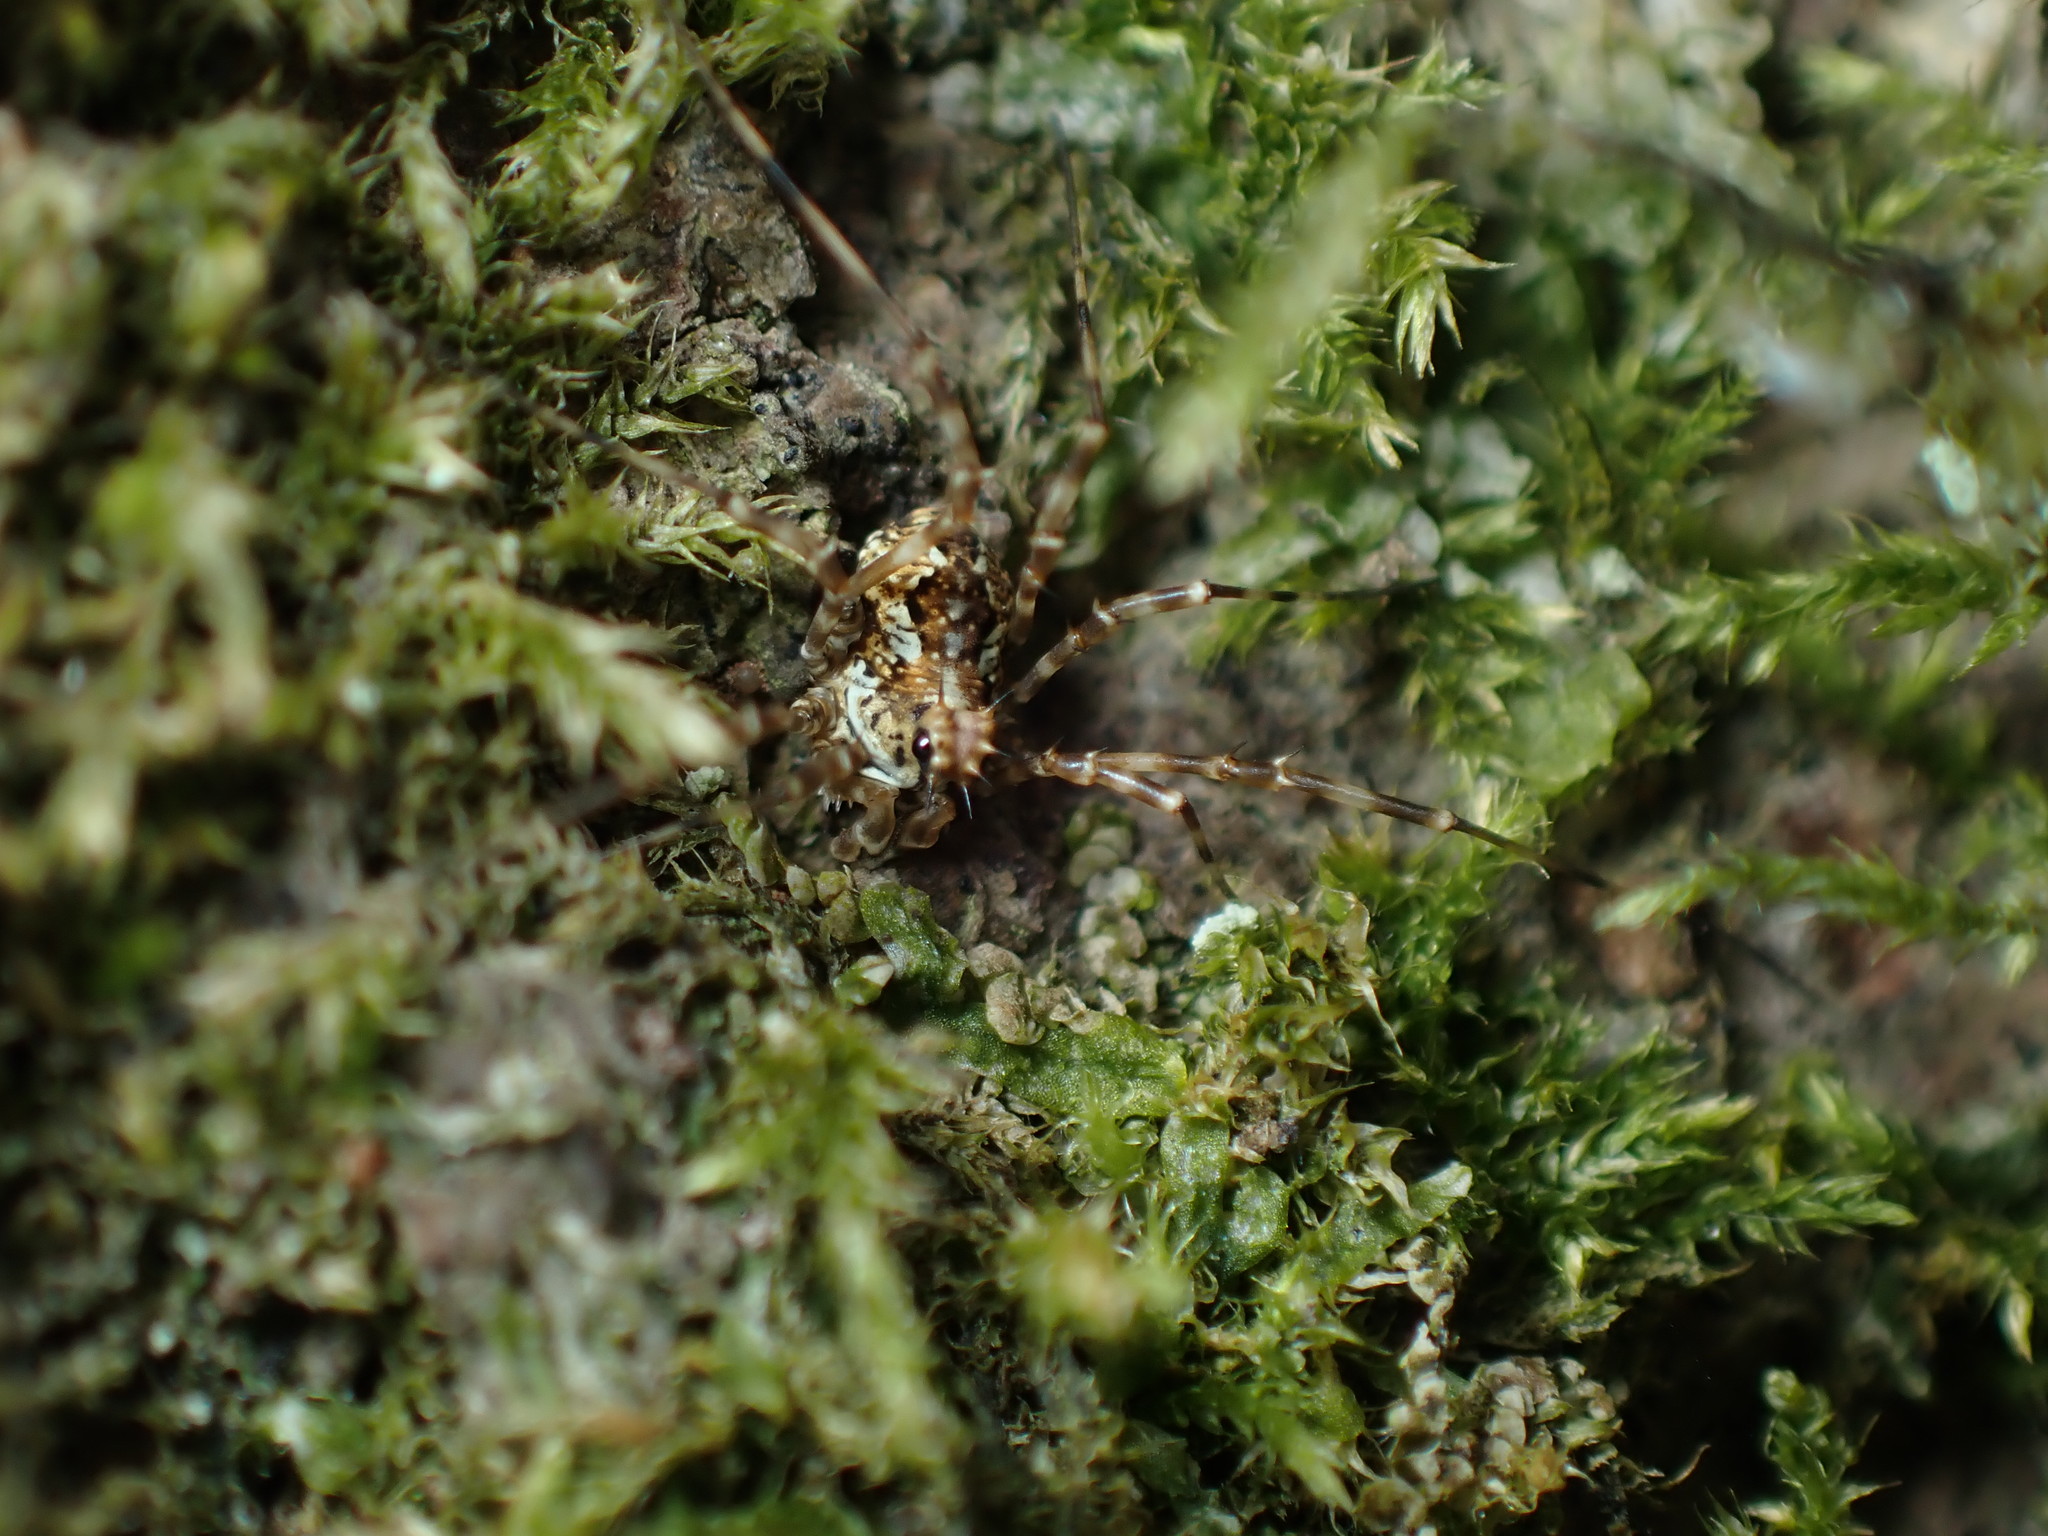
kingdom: Animalia
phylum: Arthropoda
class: Arachnida
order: Opiliones
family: Phalangiidae
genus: Megabunus
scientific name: Megabunus diadema
